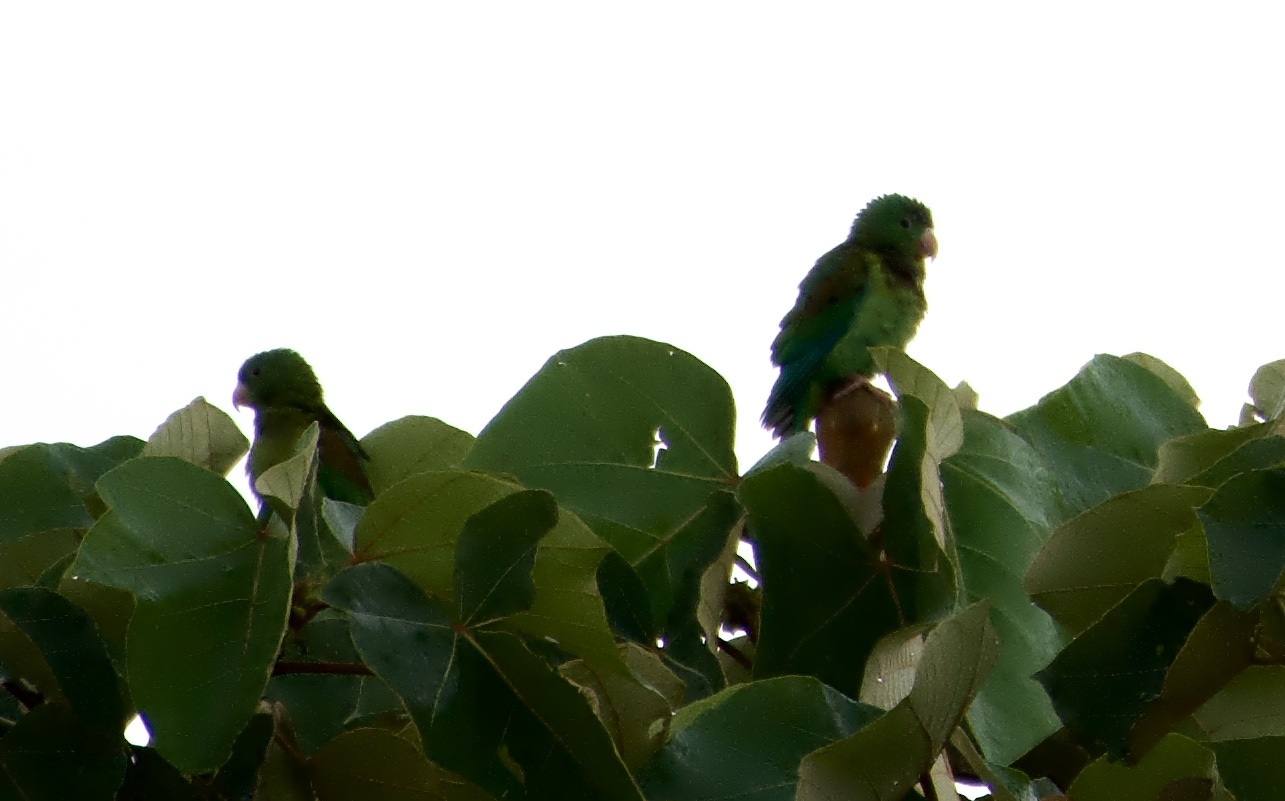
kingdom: Animalia
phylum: Chordata
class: Aves
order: Psittaciformes
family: Psittacidae
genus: Brotogeris
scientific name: Brotogeris jugularis
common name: Orange-chinned parakeet
